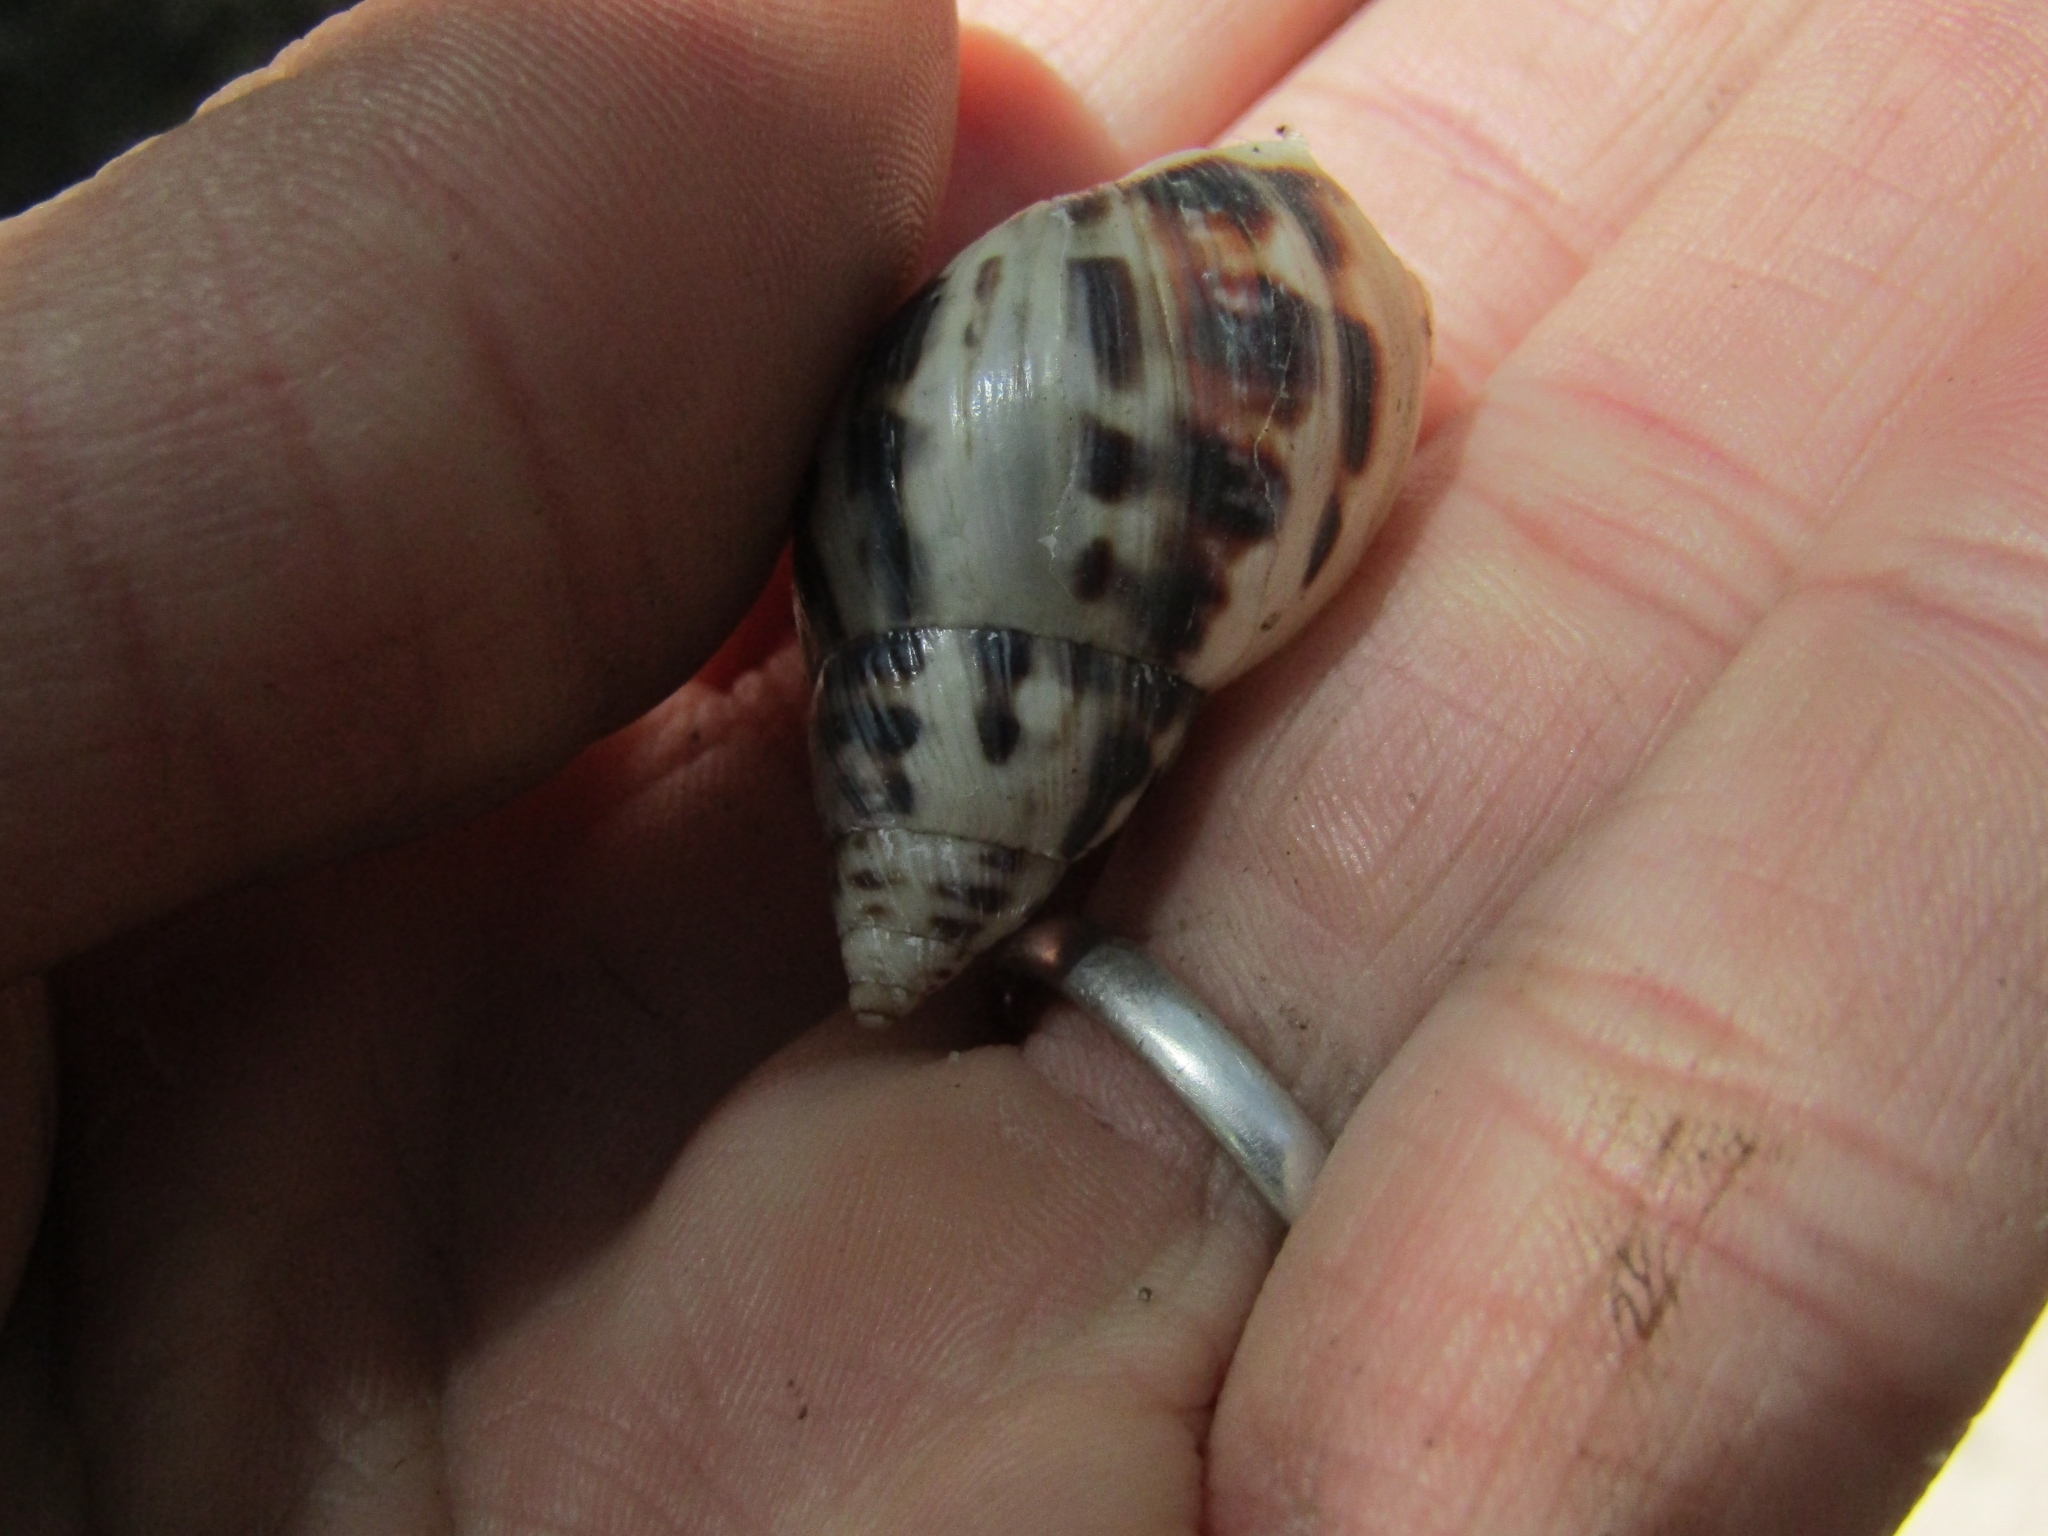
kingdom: Animalia
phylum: Mollusca
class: Gastropoda
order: Stylommatophora
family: Bulimulidae
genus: Drymaeus
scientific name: Drymaeus papyraceus
